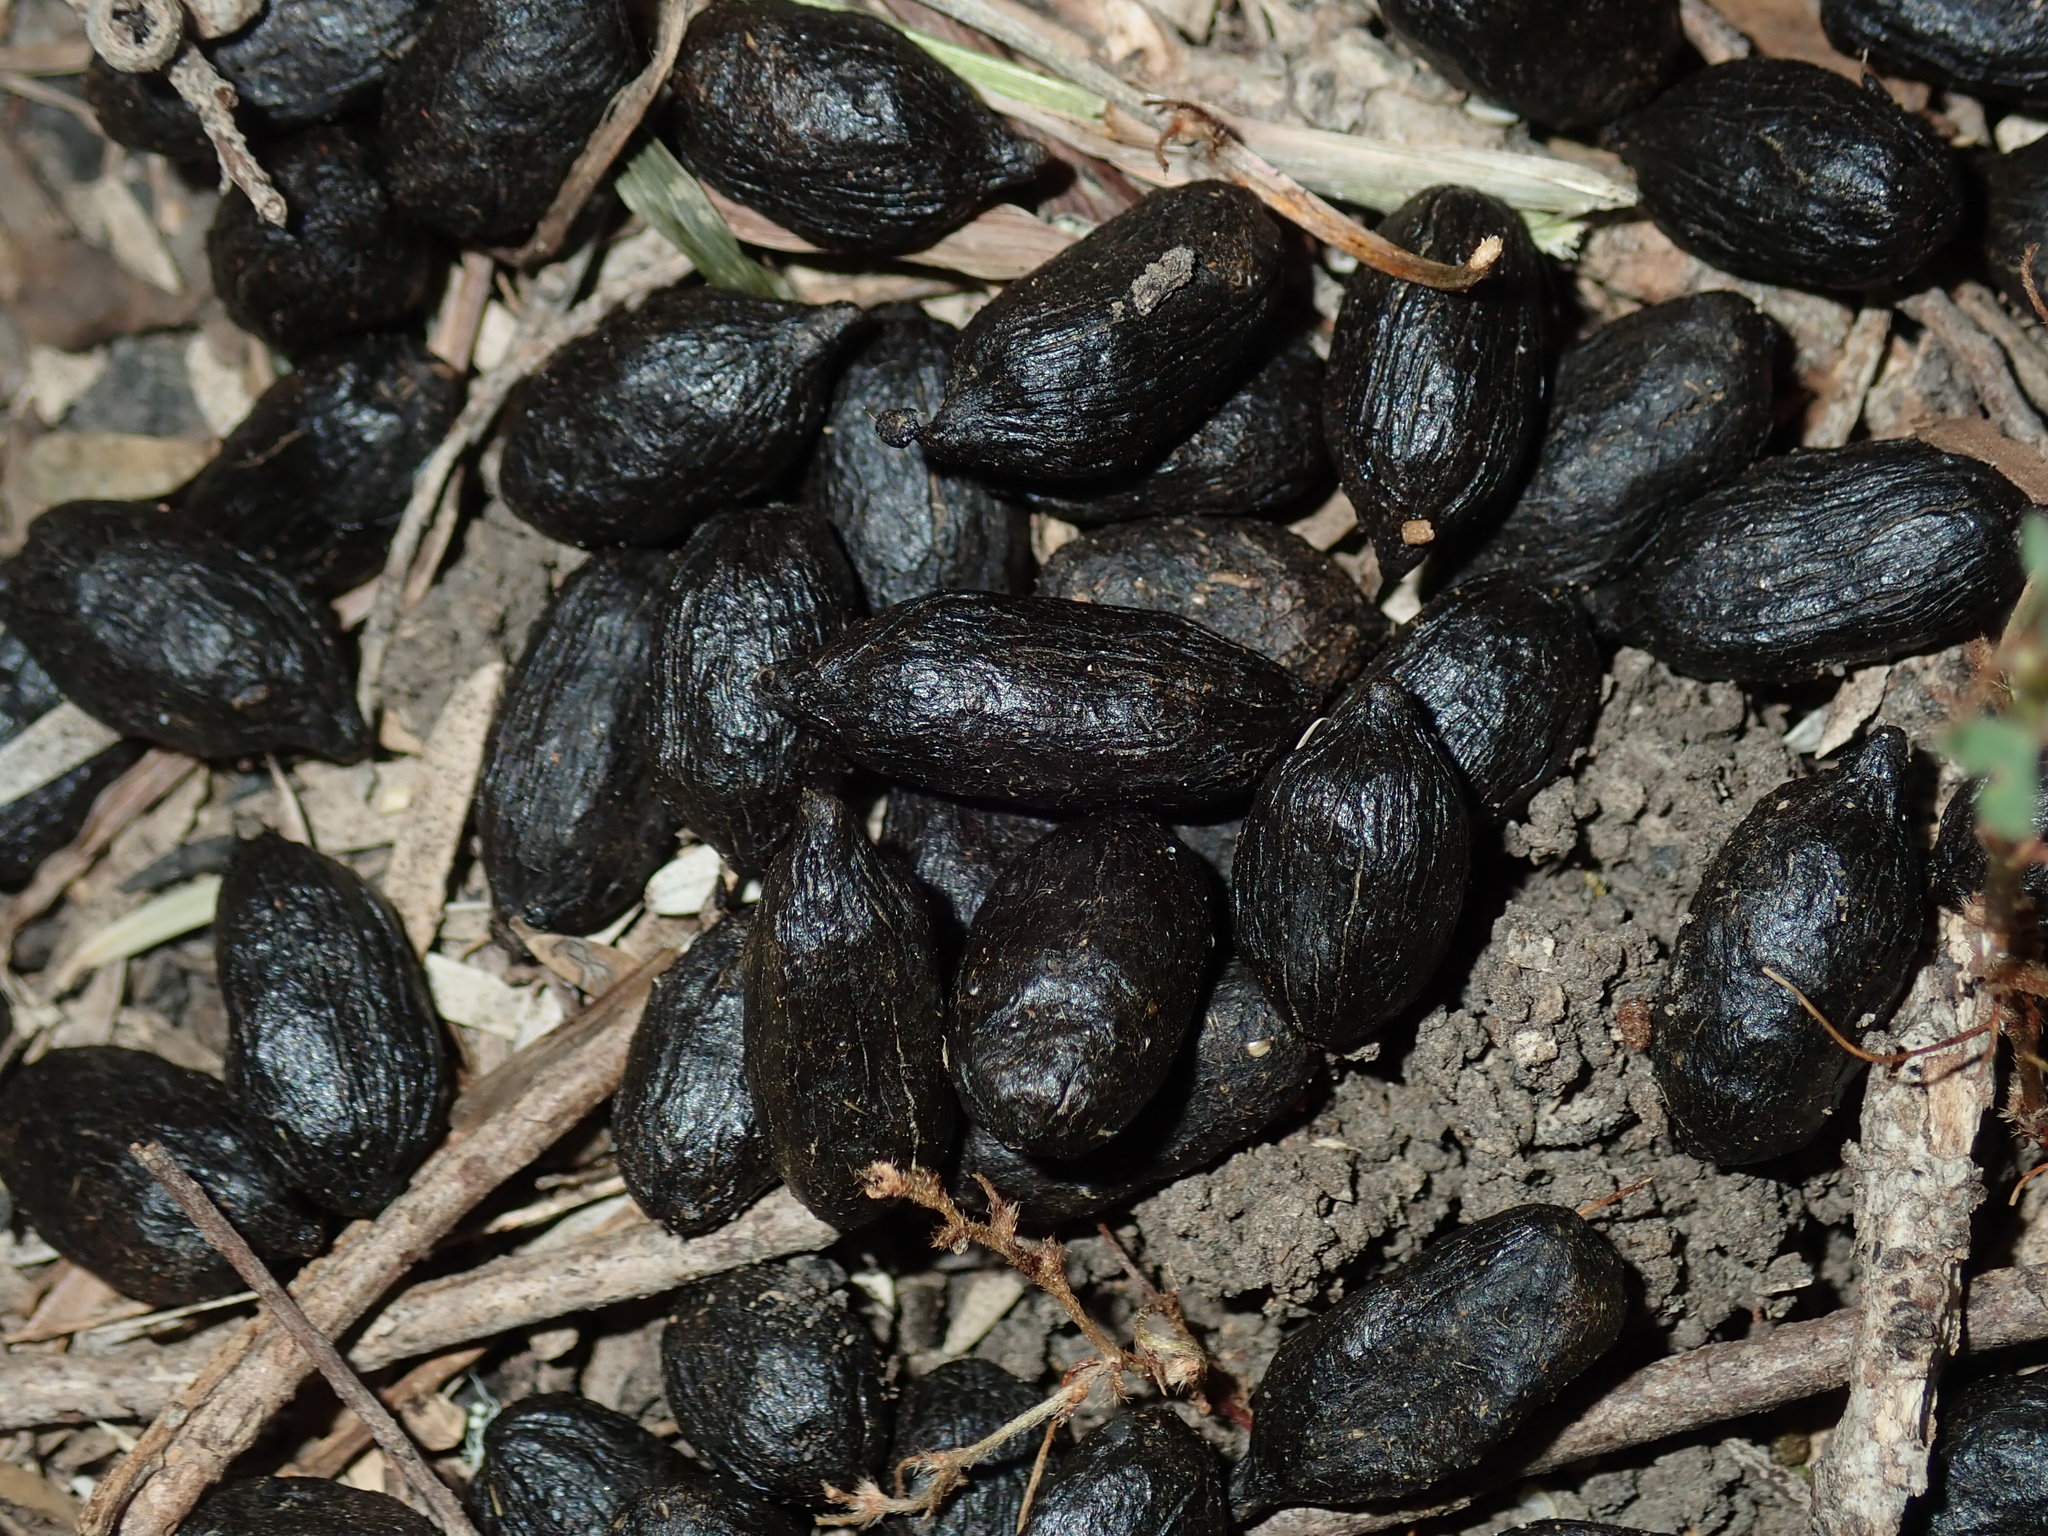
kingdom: Animalia
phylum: Chordata
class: Mammalia
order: Artiodactyla
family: Cervidae
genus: Rusa
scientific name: Rusa timorensis
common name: Javan rusa
